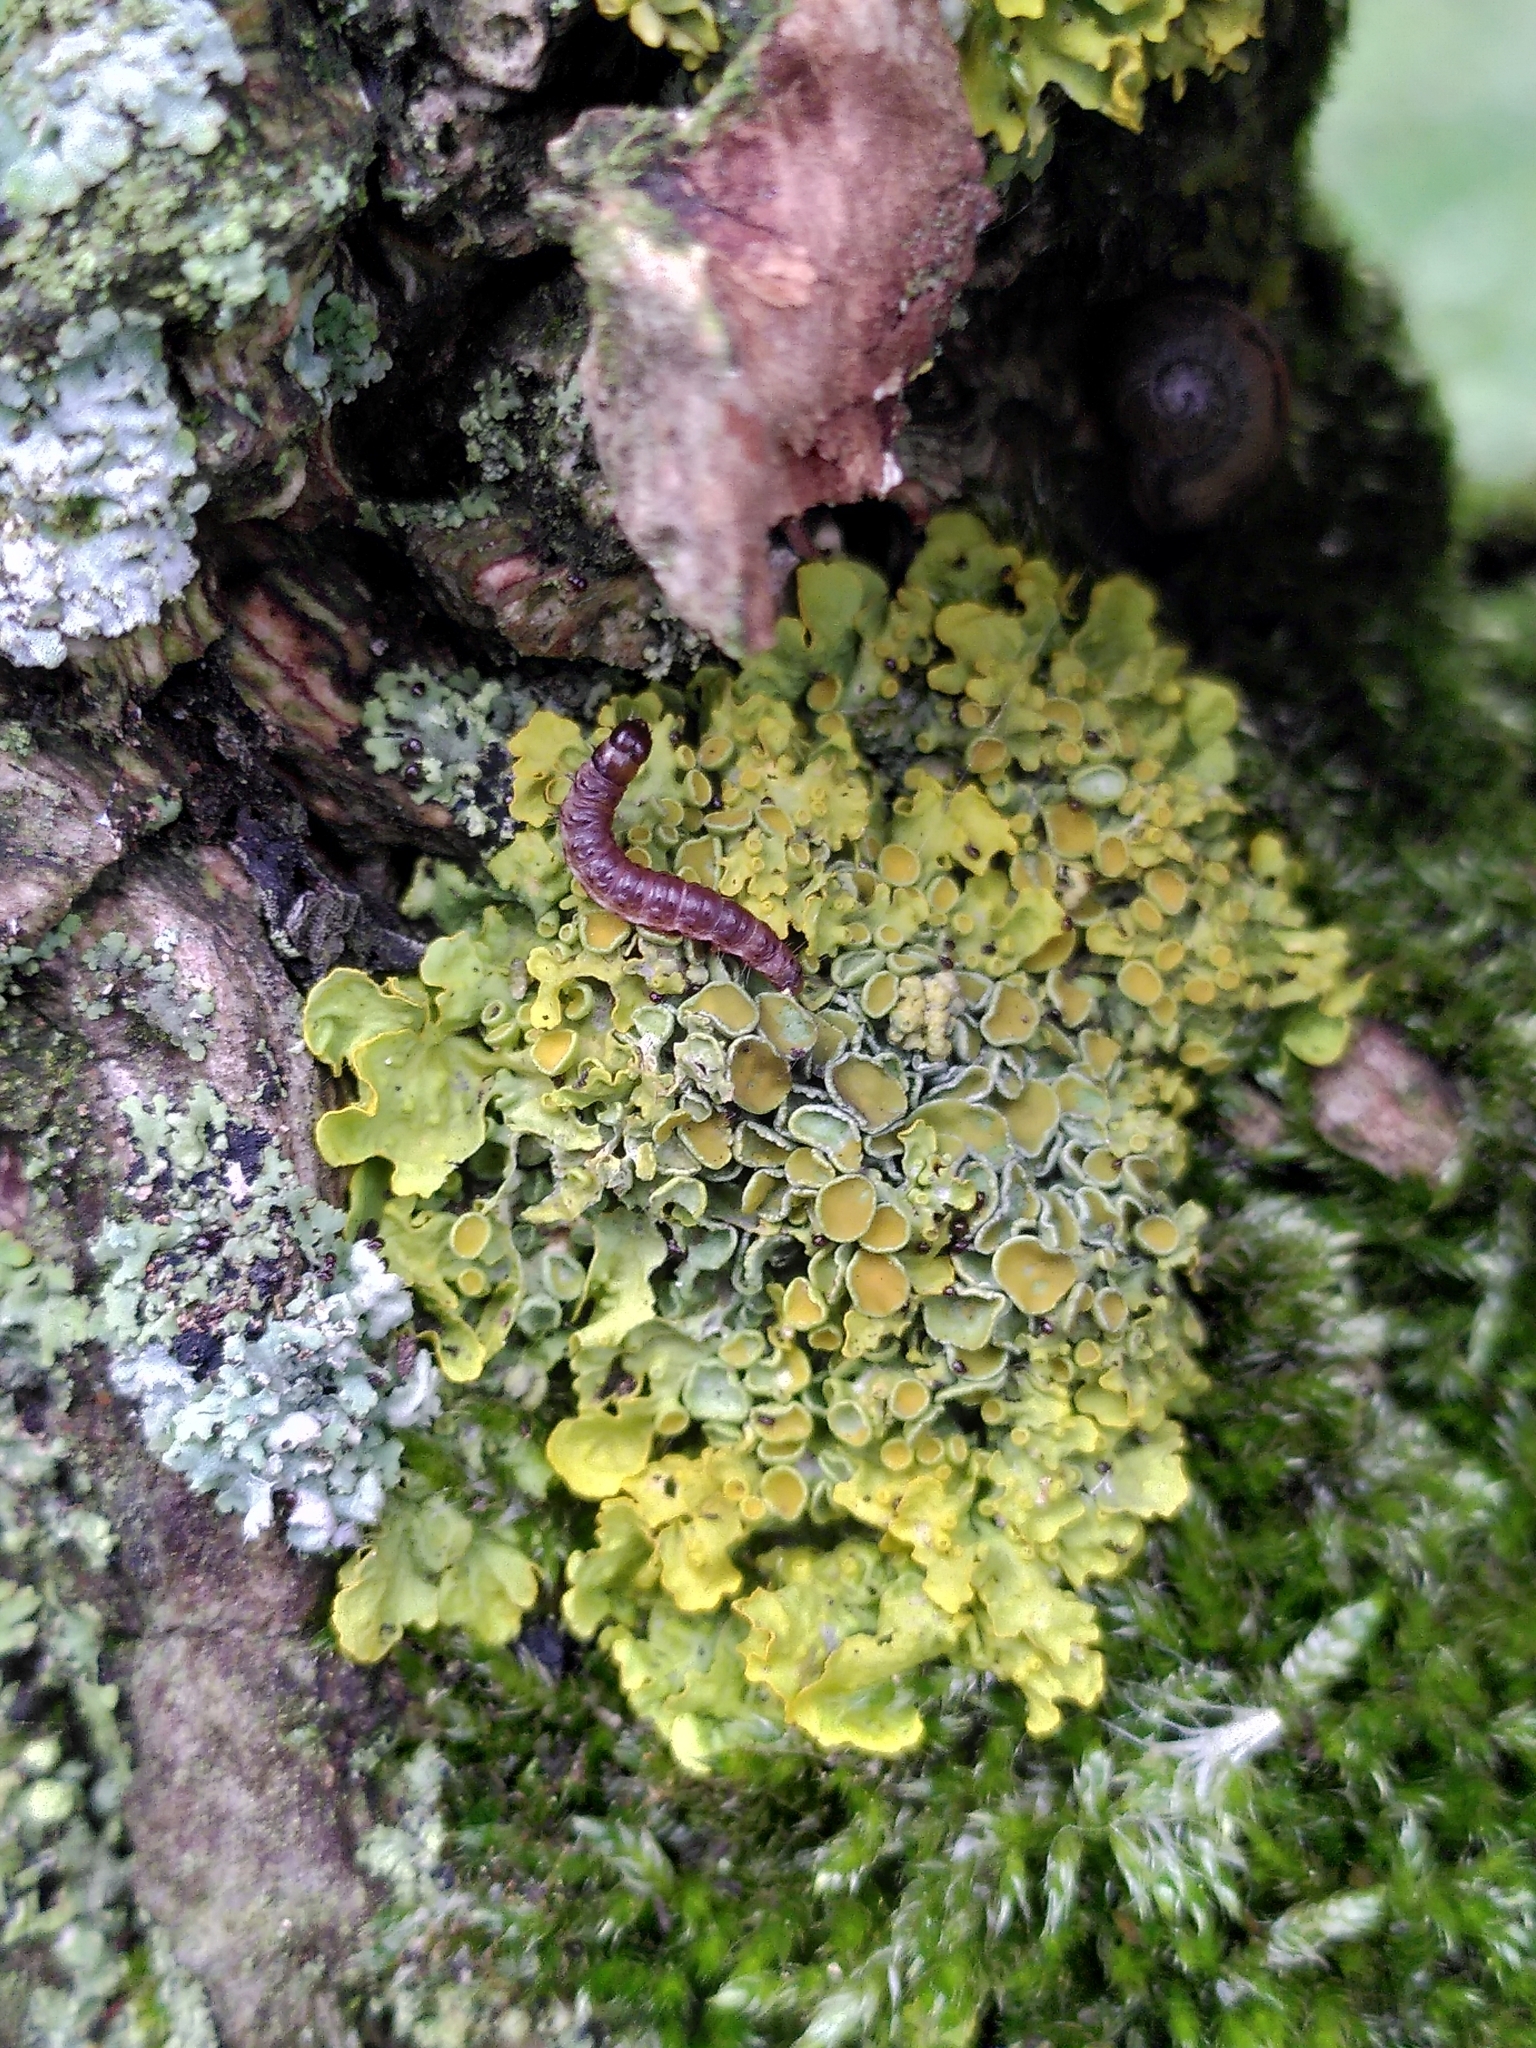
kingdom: Fungi
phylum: Ascomycota
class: Lecanoromycetes
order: Teloschistales
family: Teloschistaceae
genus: Xanthoria
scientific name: Xanthoria parietina
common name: Common orange lichen
